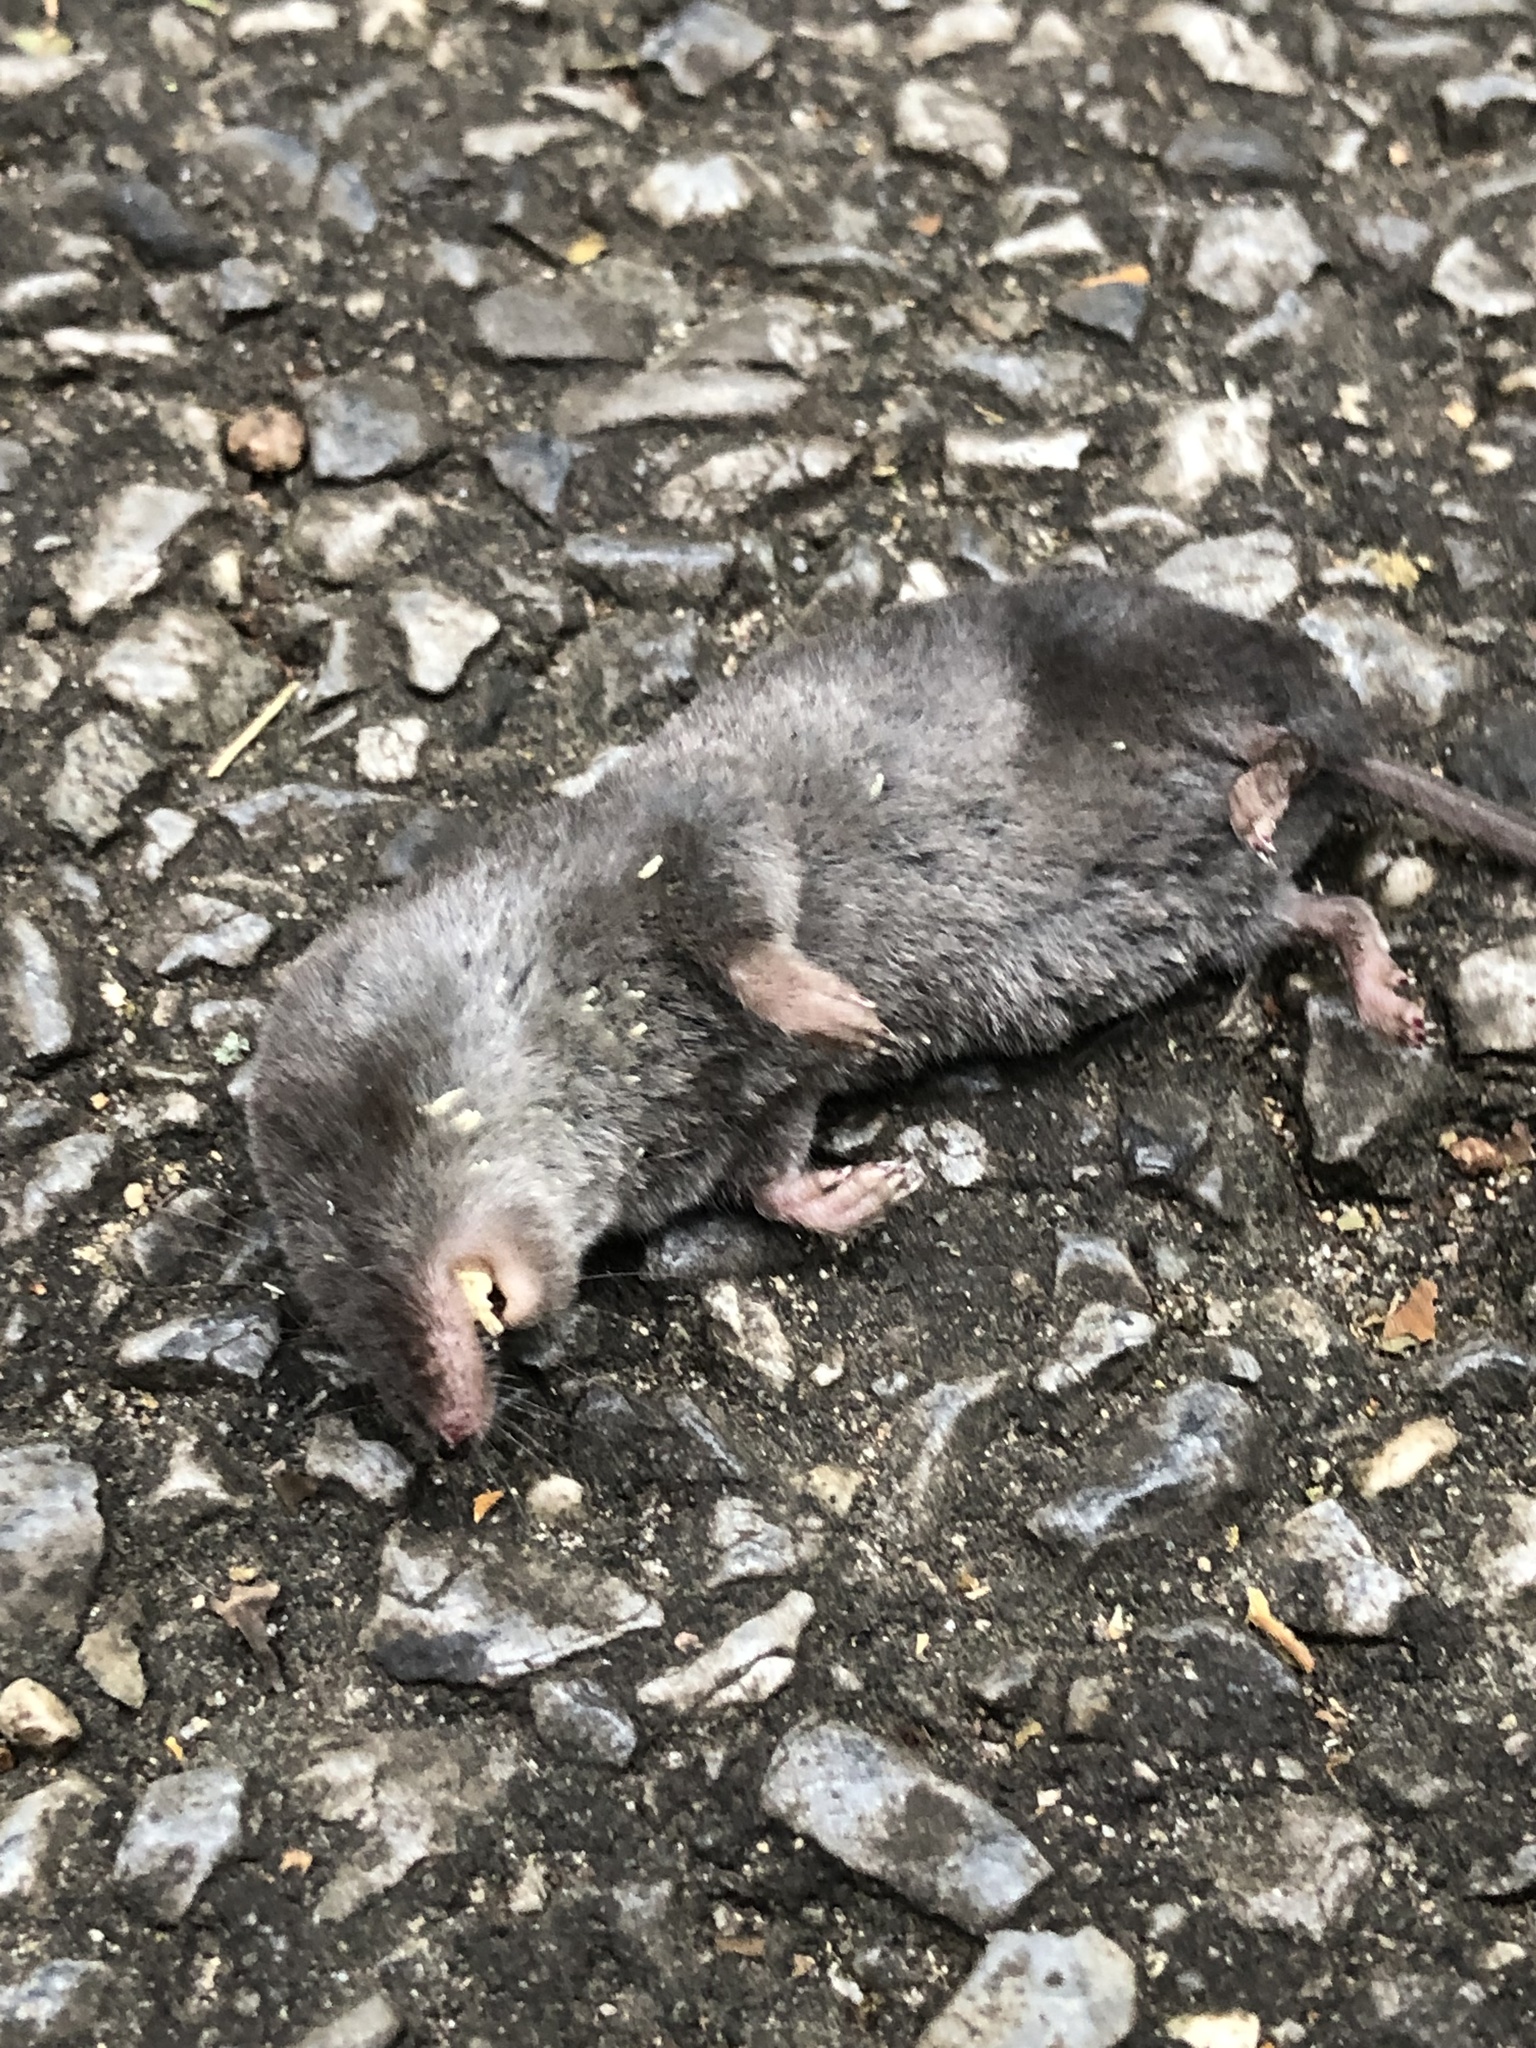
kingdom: Animalia
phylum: Chordata
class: Mammalia
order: Soricomorpha
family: Soricidae
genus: Blarina
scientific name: Blarina brevicauda
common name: Northern short-tailed shrew
